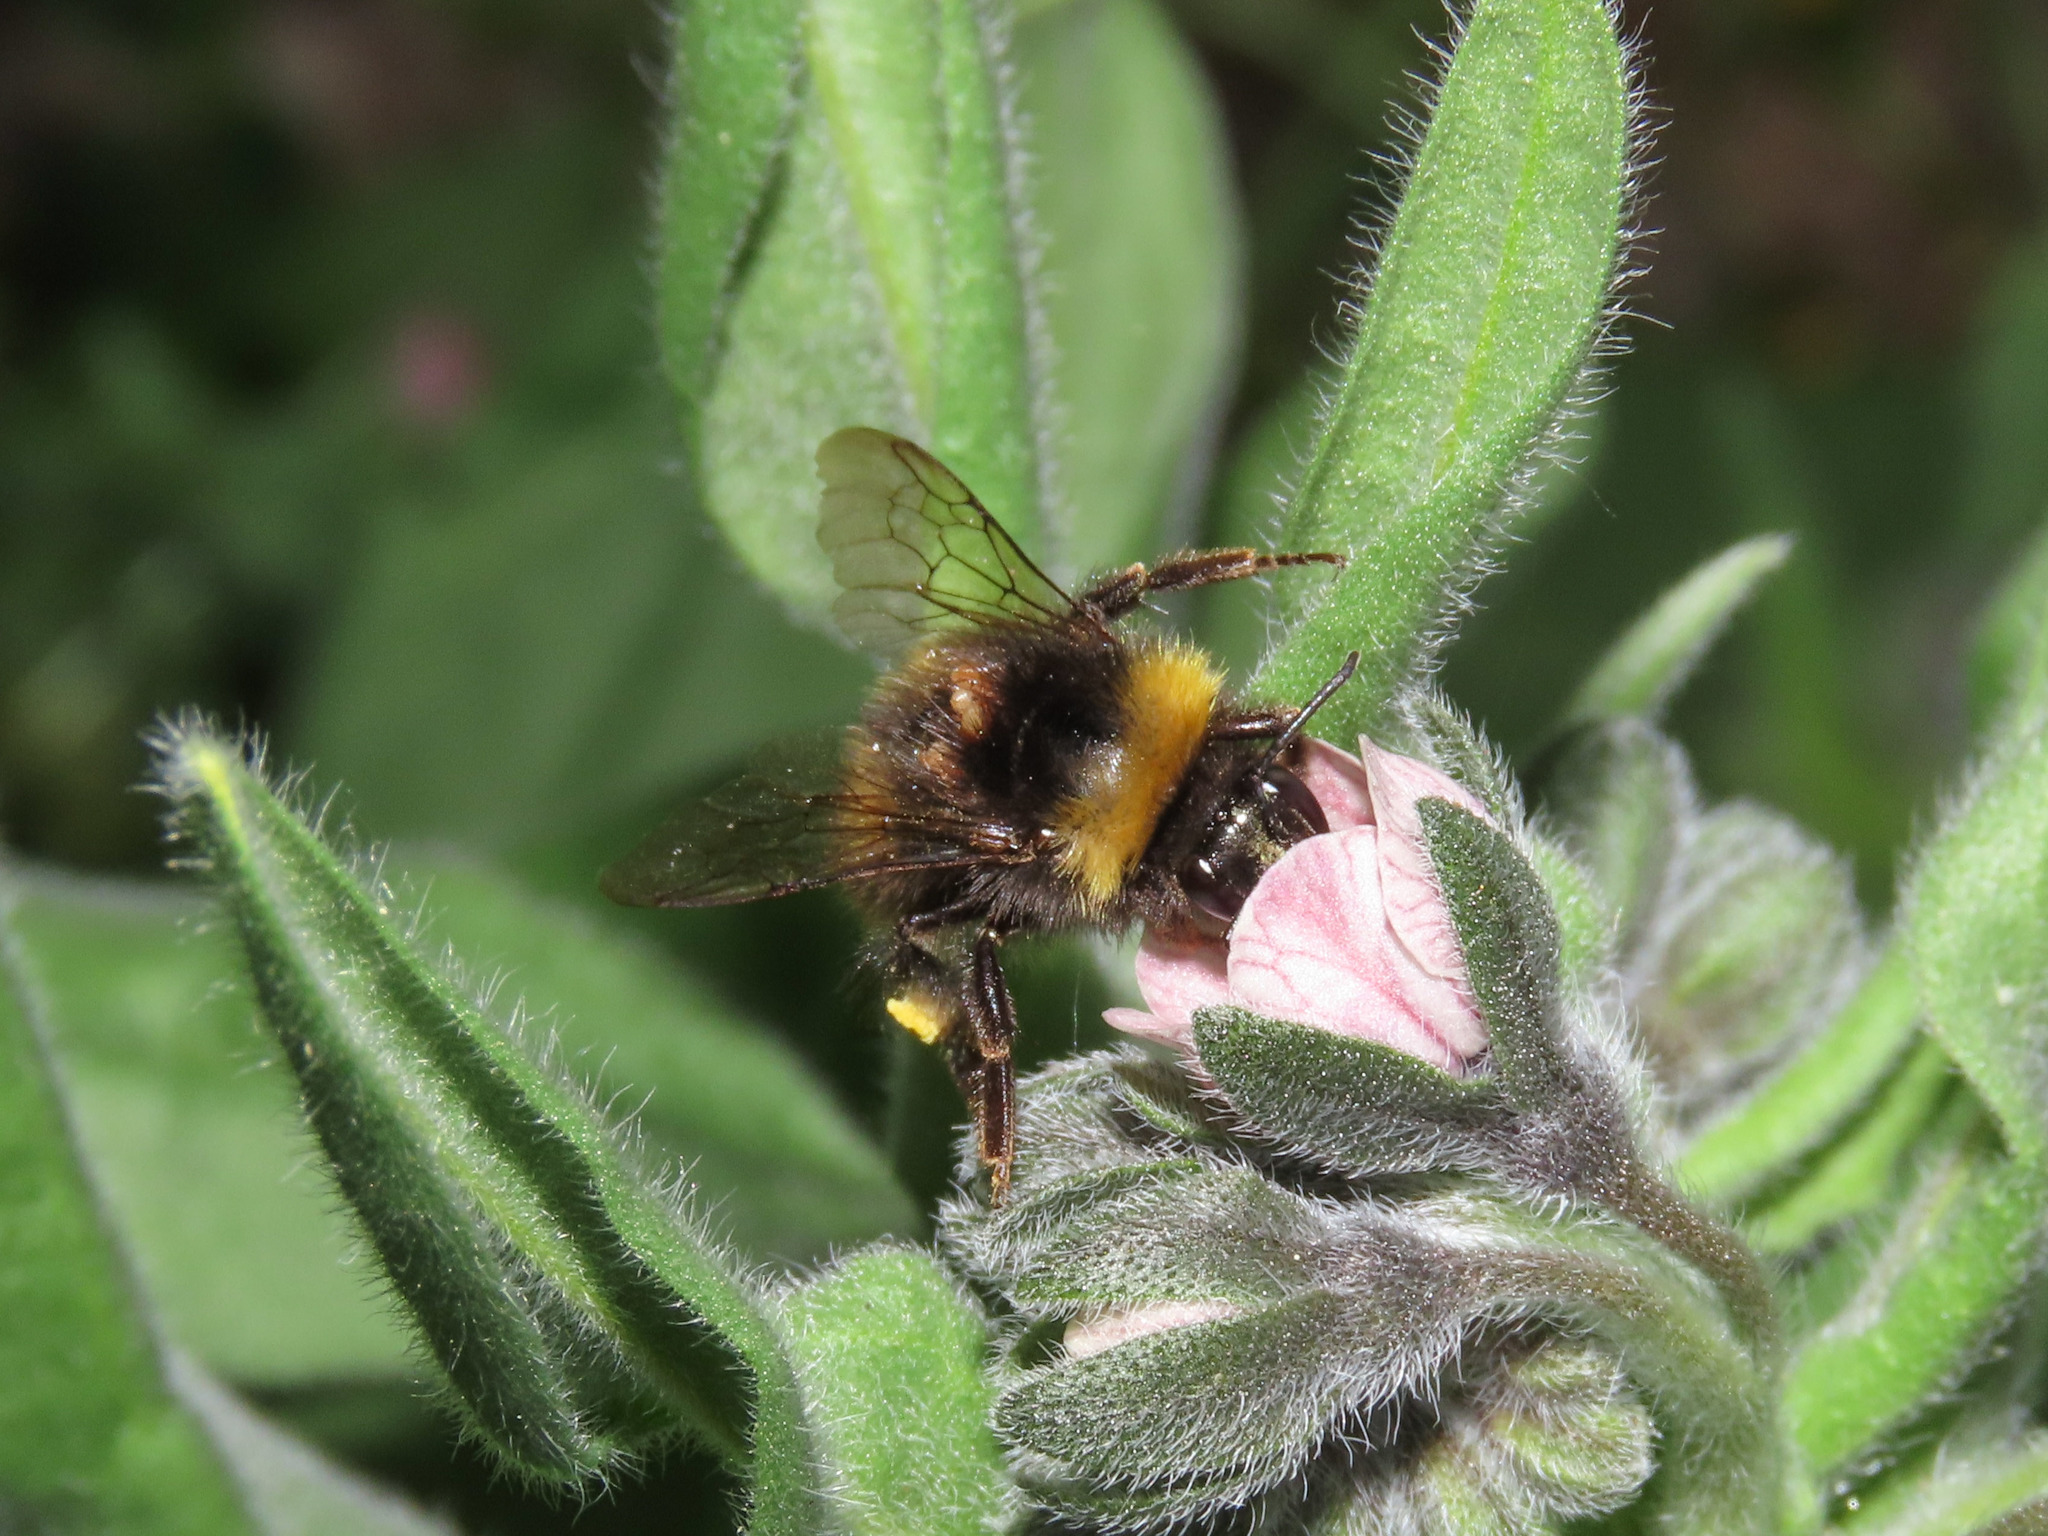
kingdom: Animalia
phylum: Arthropoda
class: Insecta
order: Hymenoptera
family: Apidae
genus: Bombus
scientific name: Bombus pratorum
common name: Early humble-bee
